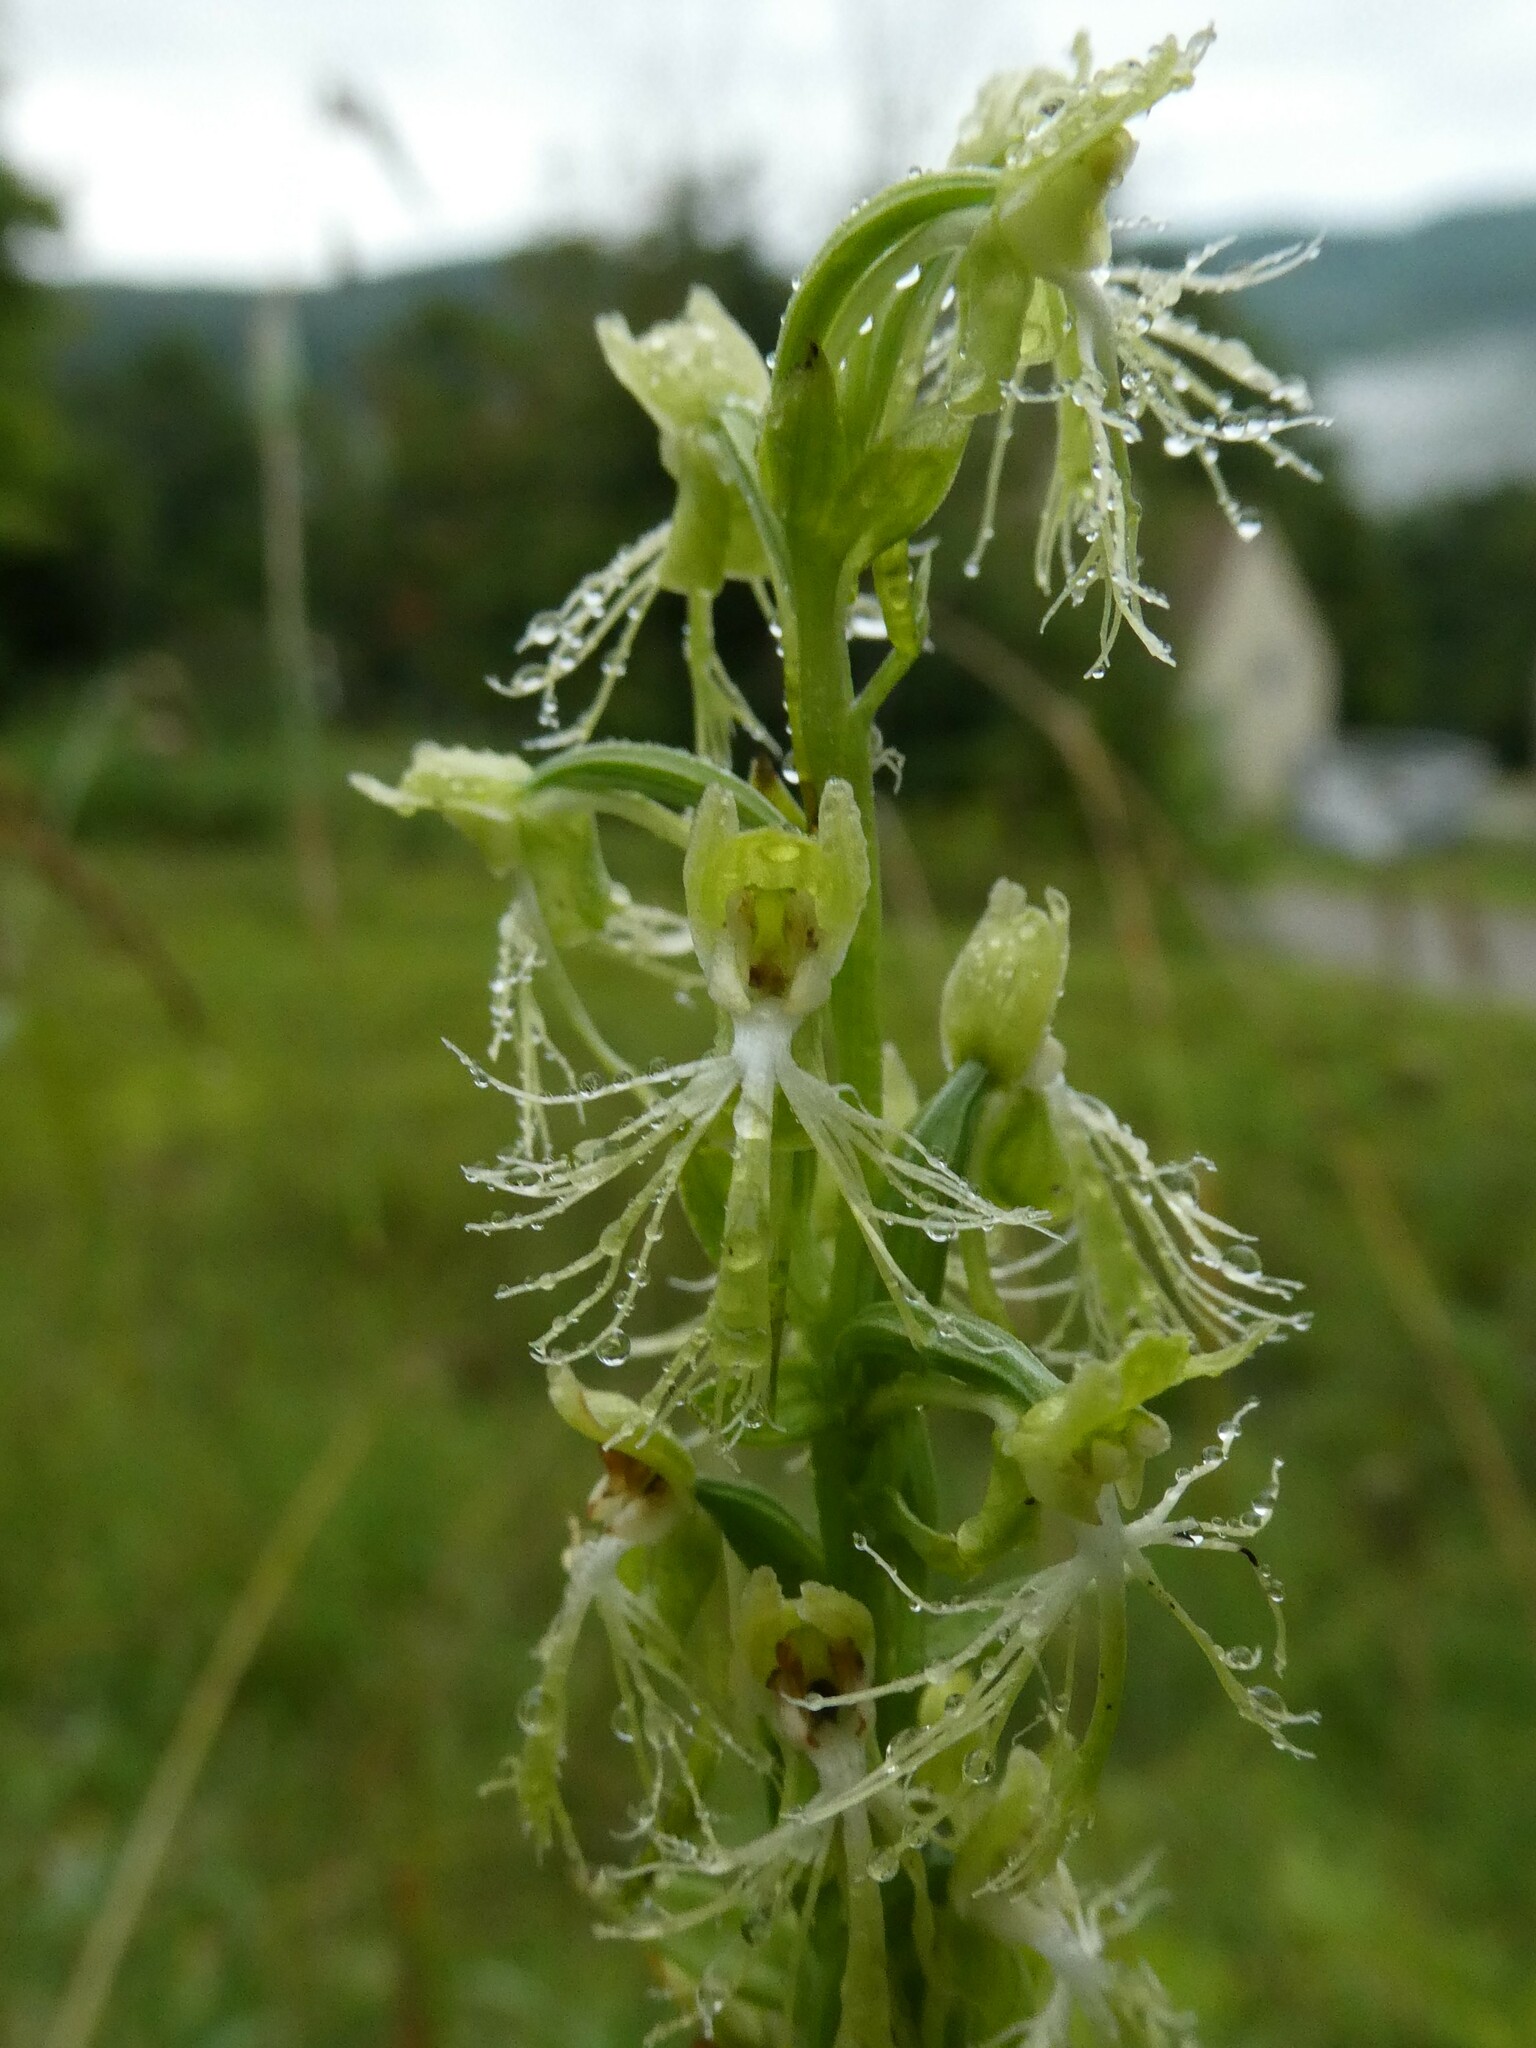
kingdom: Plantae
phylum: Tracheophyta
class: Liliopsida
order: Asparagales
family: Orchidaceae
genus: Platanthera
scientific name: Platanthera lacera
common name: Green fringed orchid
